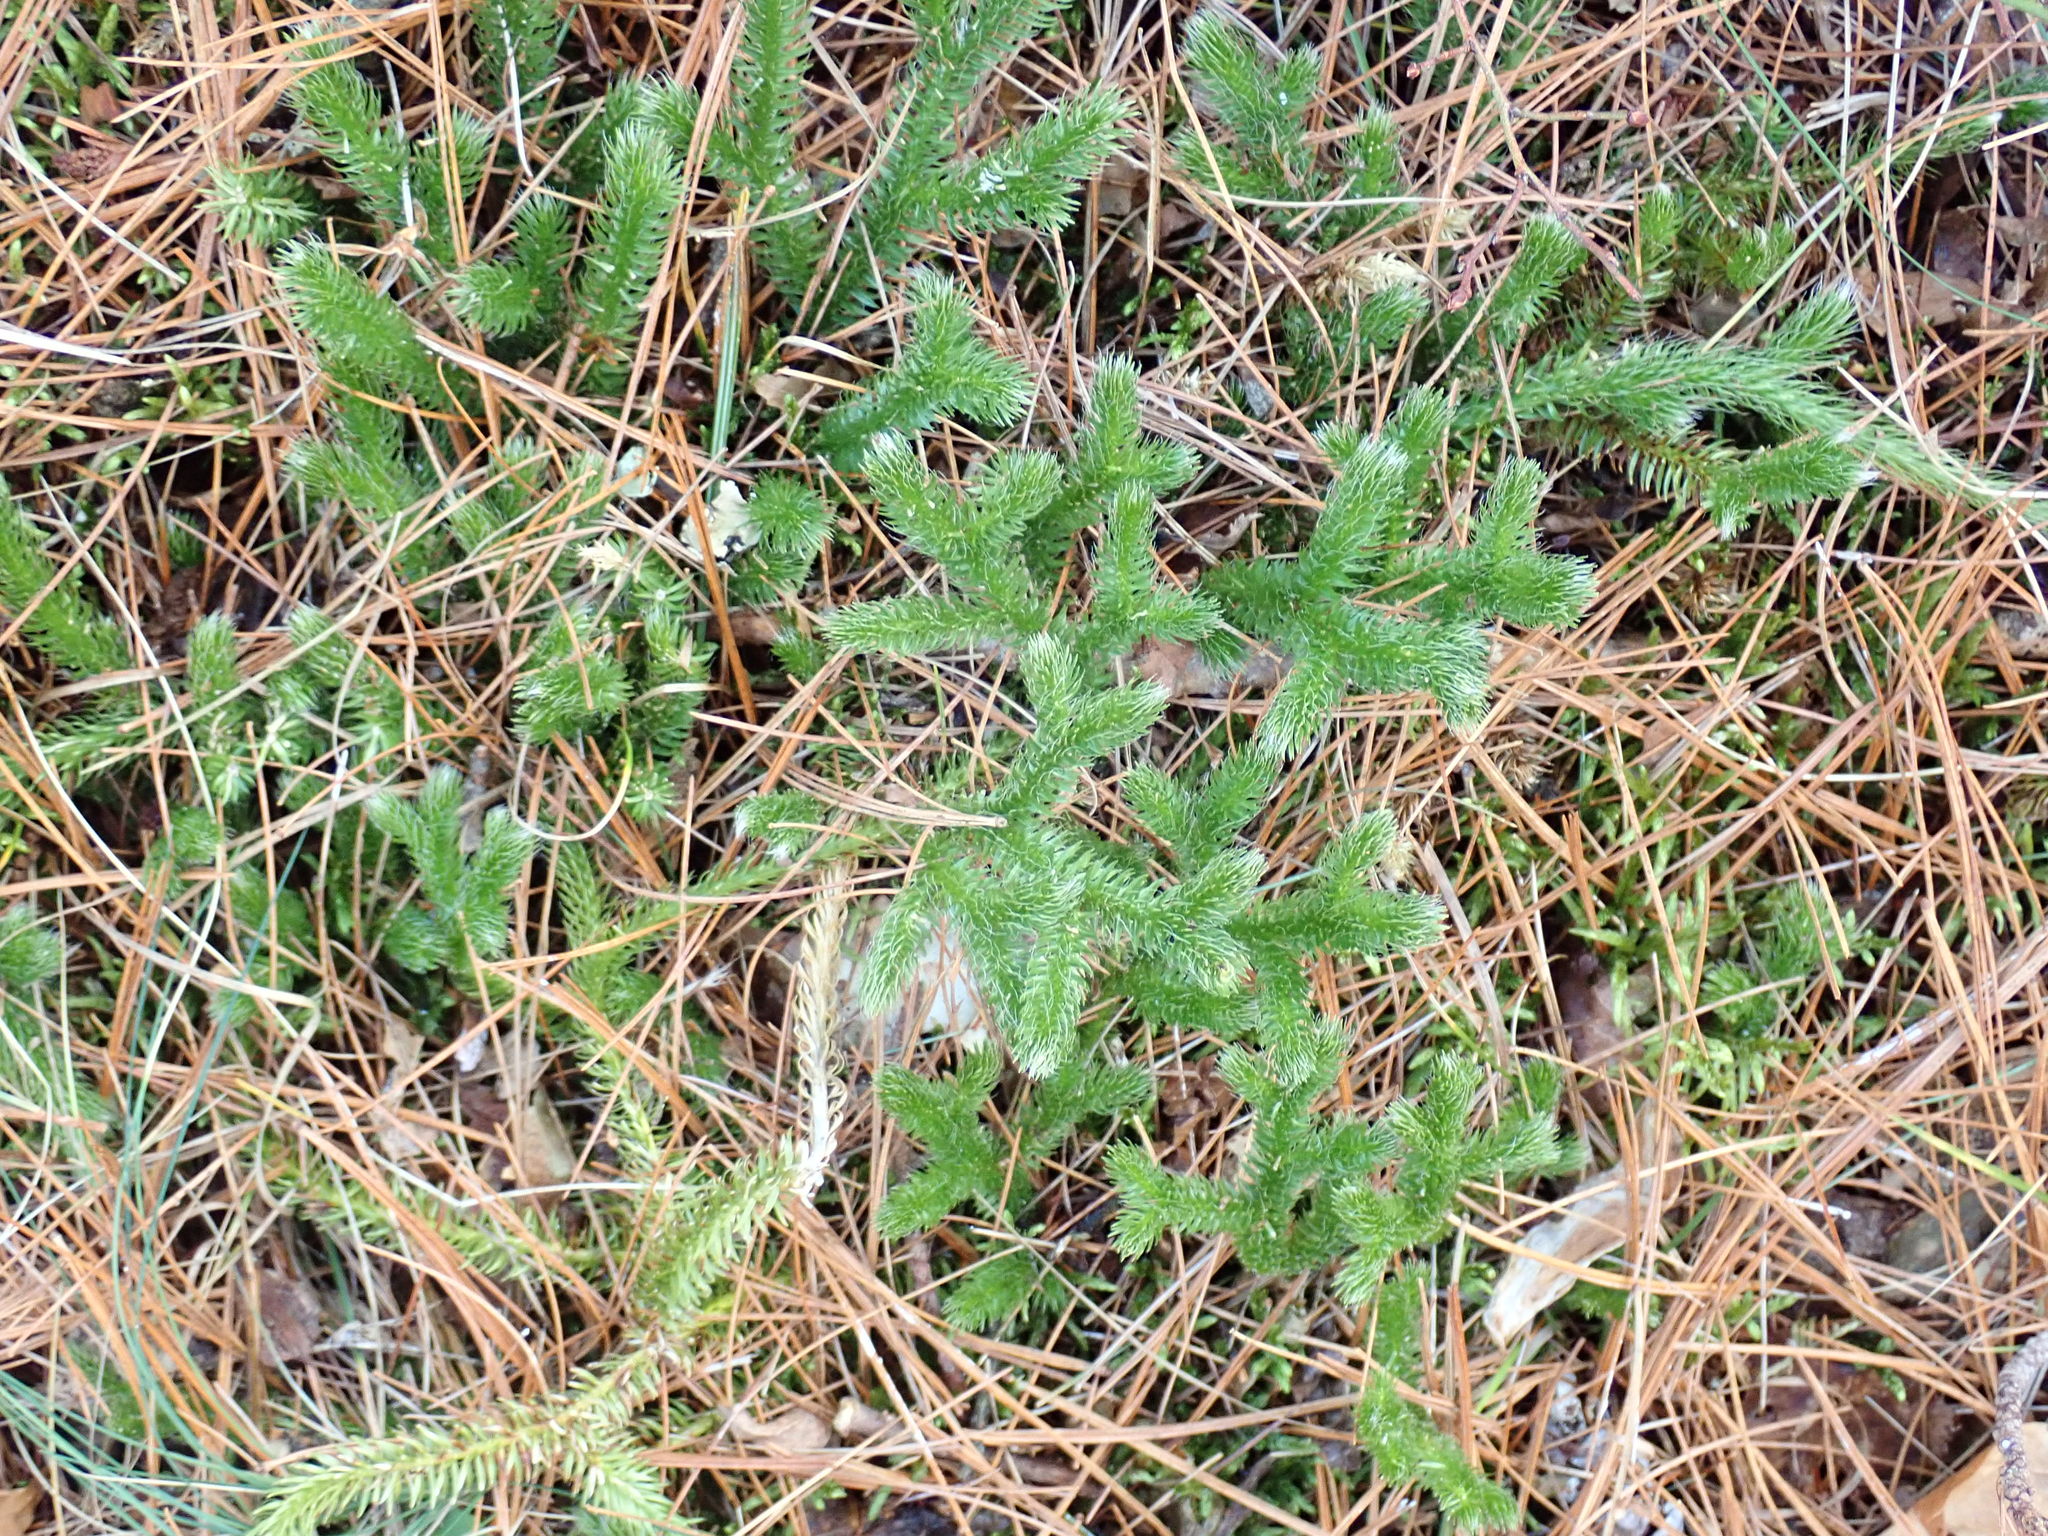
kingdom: Plantae
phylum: Tracheophyta
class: Lycopodiopsida
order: Lycopodiales
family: Lycopodiaceae
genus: Lycopodium
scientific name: Lycopodium clavatum
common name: Stag's-horn clubmoss
